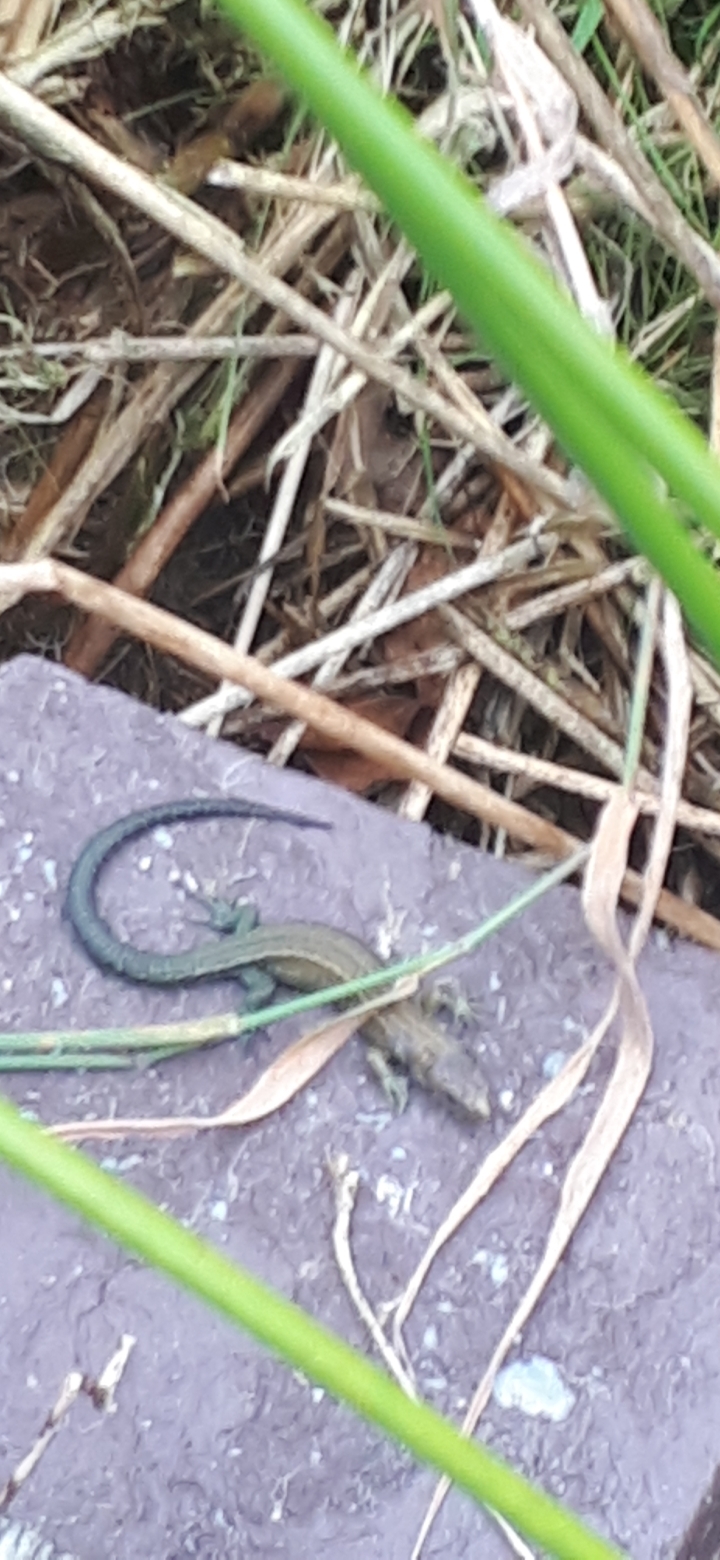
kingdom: Animalia
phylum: Chordata
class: Squamata
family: Lacertidae
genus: Zootoca
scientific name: Zootoca vivipara
